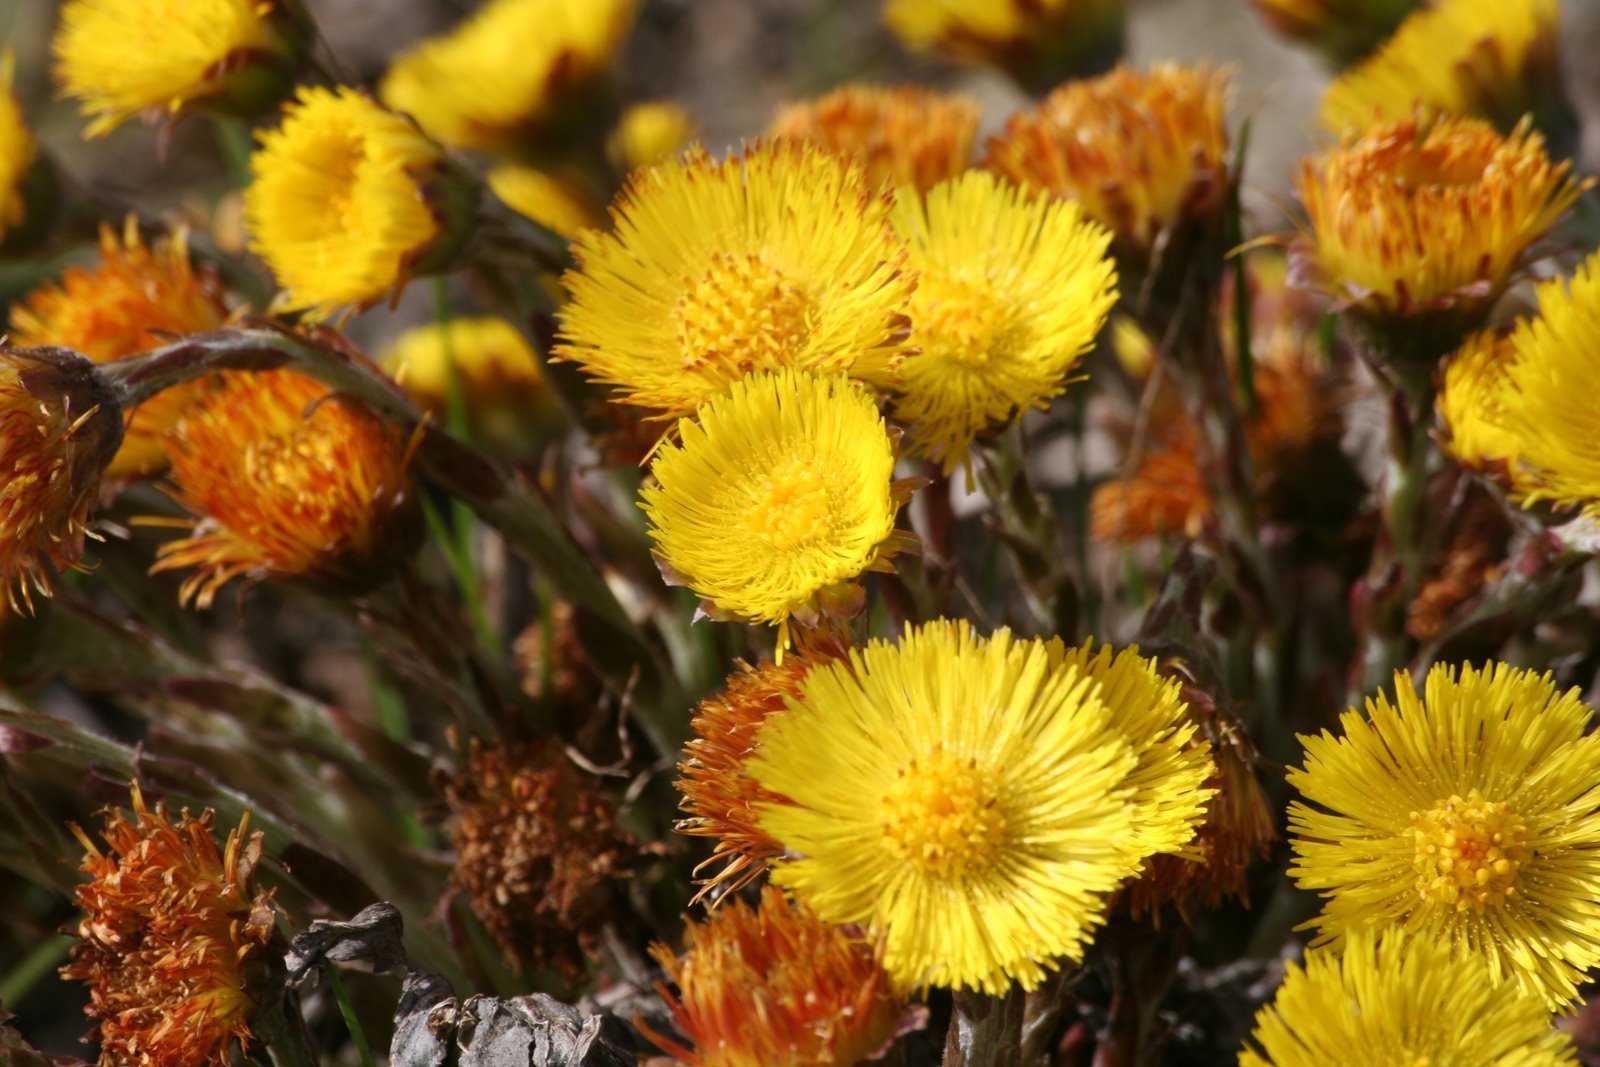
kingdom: Plantae
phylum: Tracheophyta
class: Magnoliopsida
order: Asterales
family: Asteraceae
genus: Tussilago
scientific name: Tussilago farfara
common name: Coltsfoot
